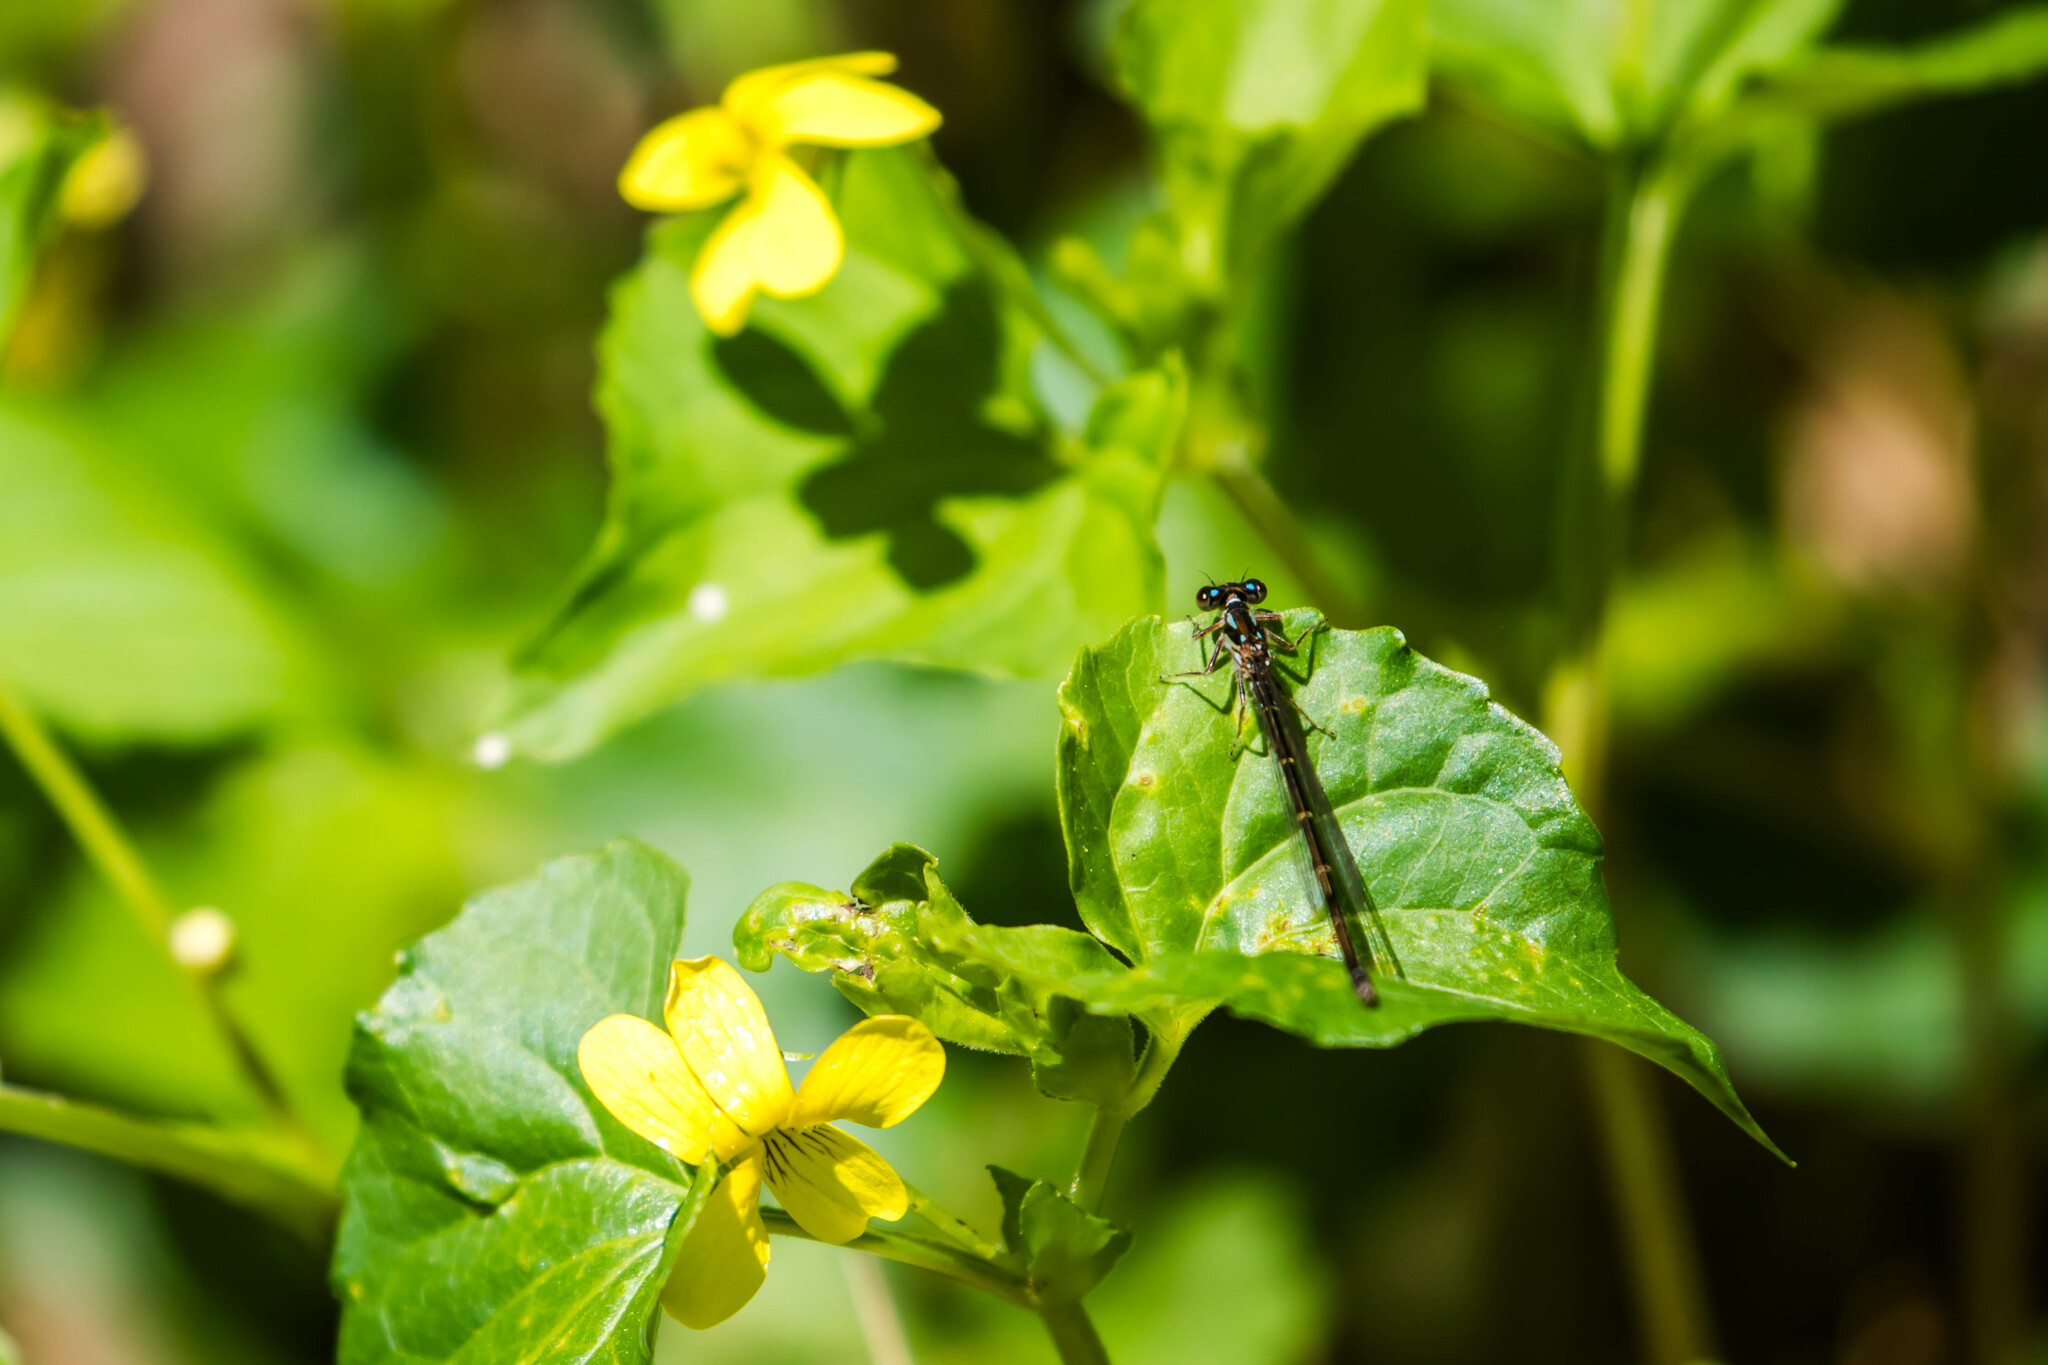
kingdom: Animalia
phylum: Arthropoda
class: Insecta
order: Odonata
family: Coenagrionidae
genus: Ischnura
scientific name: Ischnura posita
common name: Fragile forktail
